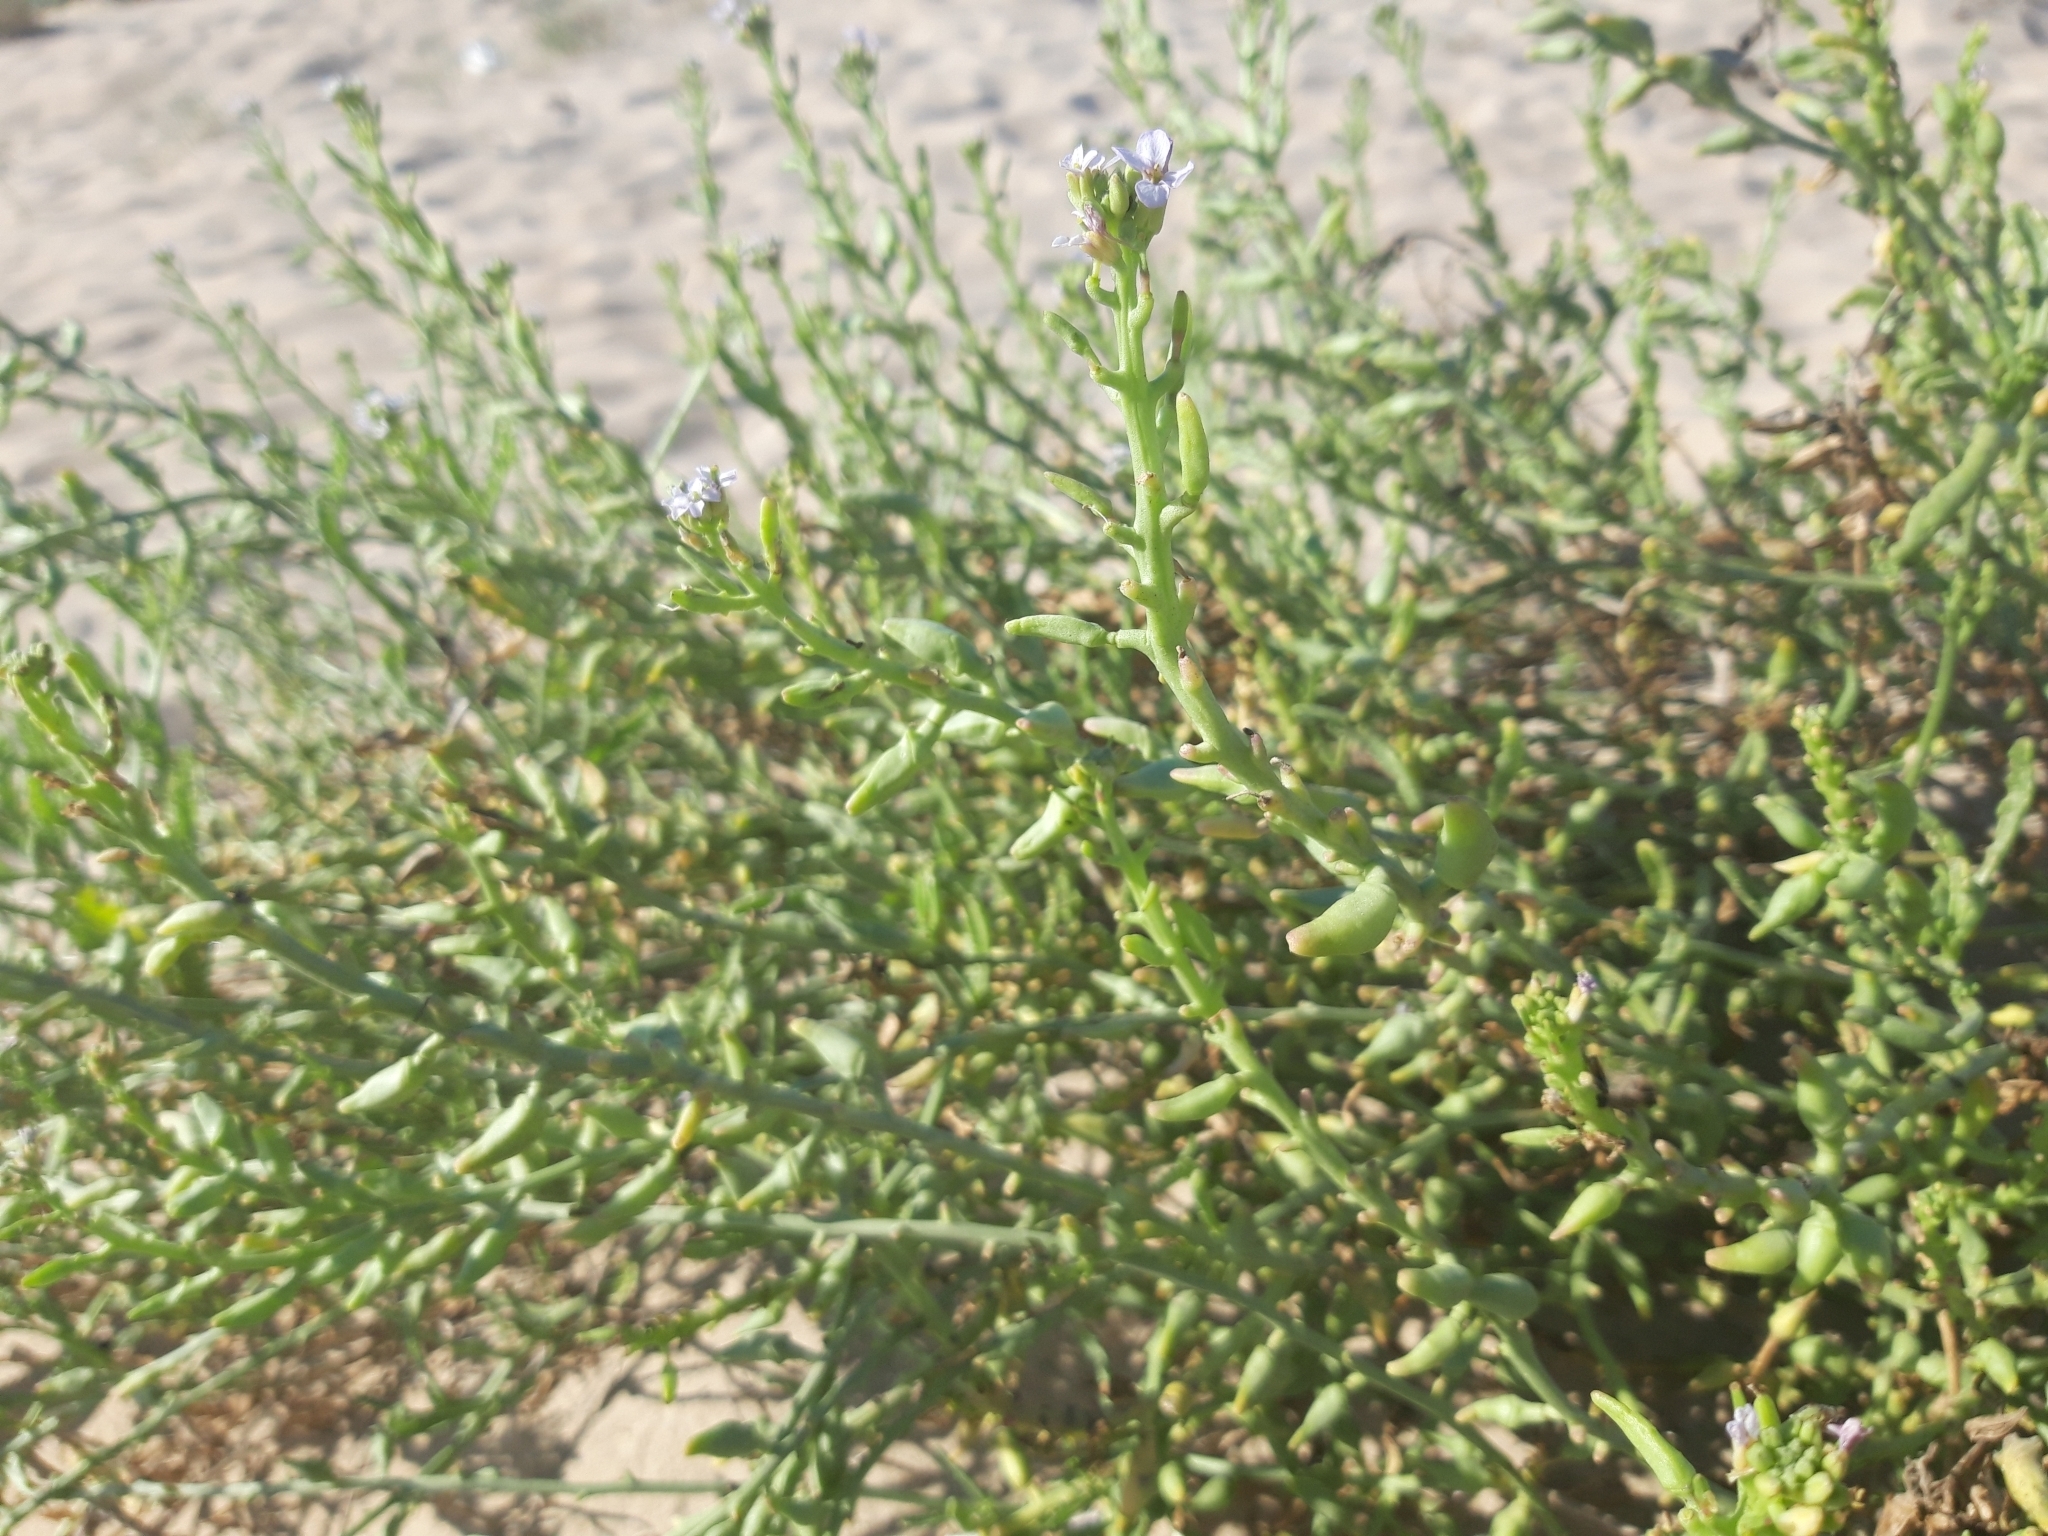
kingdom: Plantae
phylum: Tracheophyta
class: Magnoliopsida
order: Brassicales
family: Brassicaceae
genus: Cakile
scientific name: Cakile maritima
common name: Sea rocket
